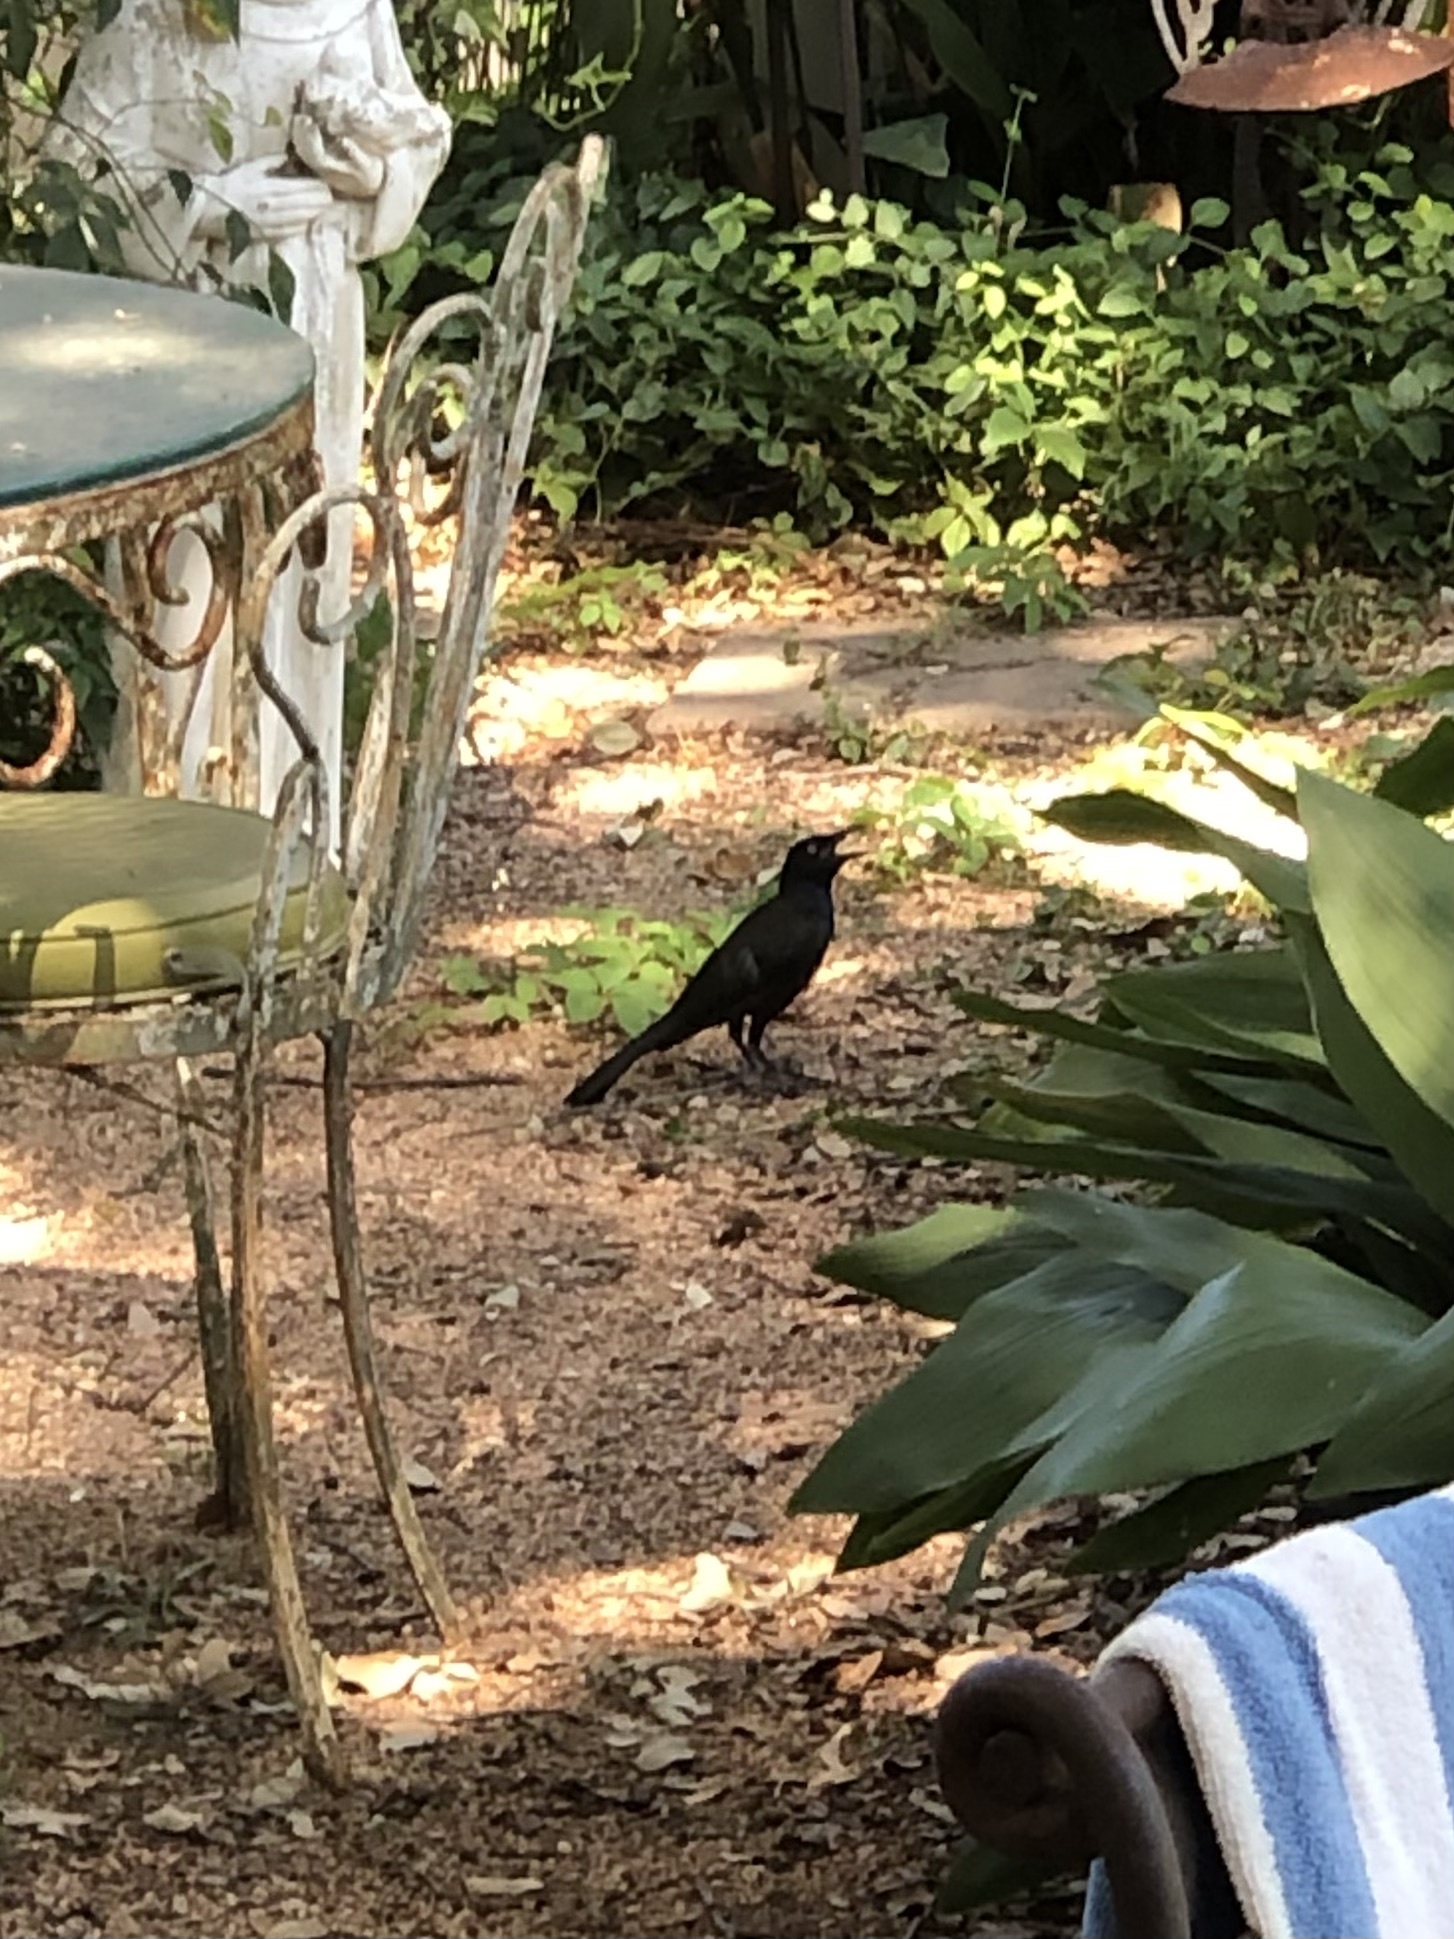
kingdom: Animalia
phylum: Chordata
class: Aves
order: Passeriformes
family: Icteridae
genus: Quiscalus
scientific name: Quiscalus mexicanus
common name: Great-tailed grackle
